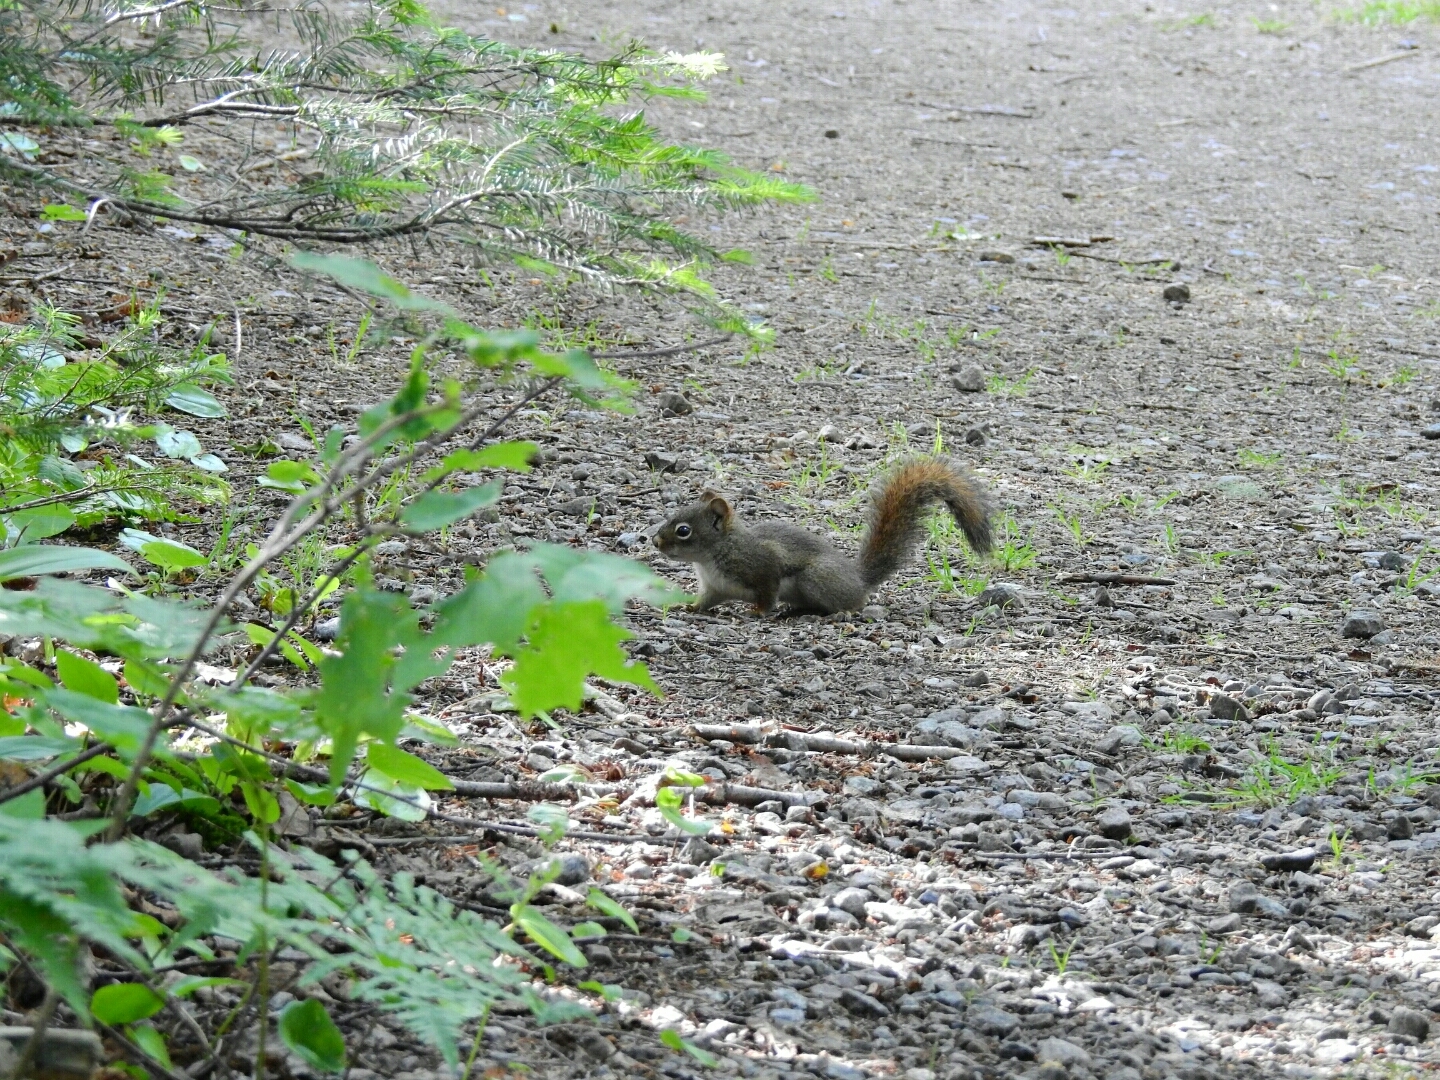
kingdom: Animalia
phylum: Chordata
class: Mammalia
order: Rodentia
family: Sciuridae
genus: Tamiasciurus
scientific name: Tamiasciurus hudsonicus
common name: Red squirrel
